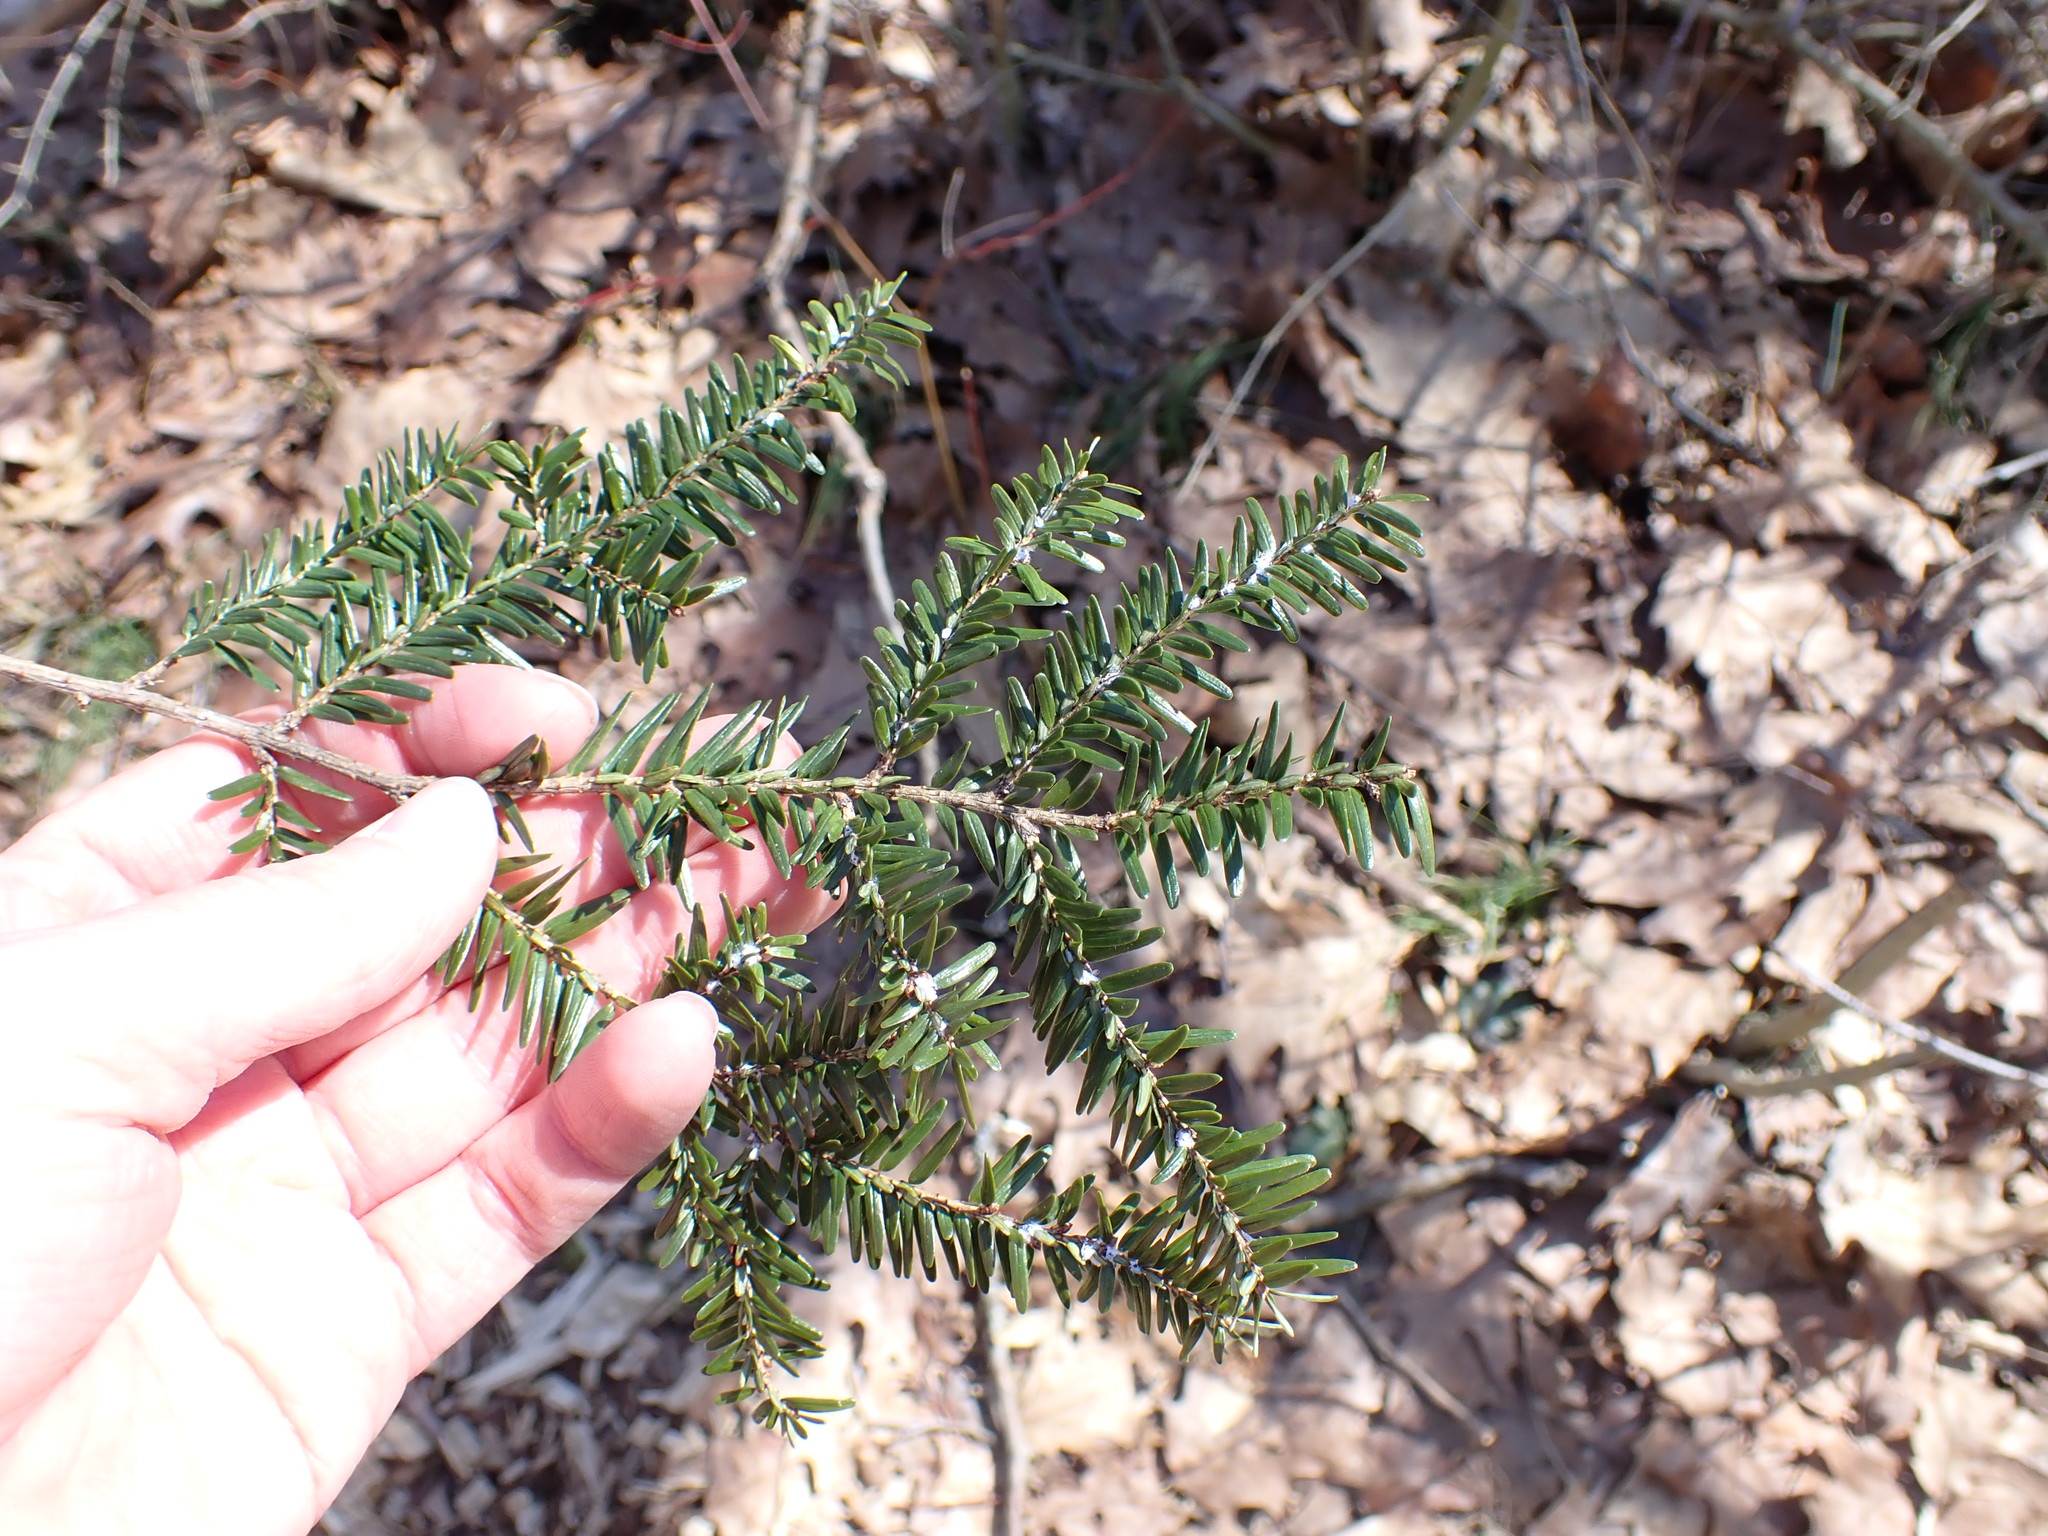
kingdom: Plantae
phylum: Tracheophyta
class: Pinopsida
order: Pinales
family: Pinaceae
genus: Tsuga
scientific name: Tsuga canadensis
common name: Eastern hemlock
